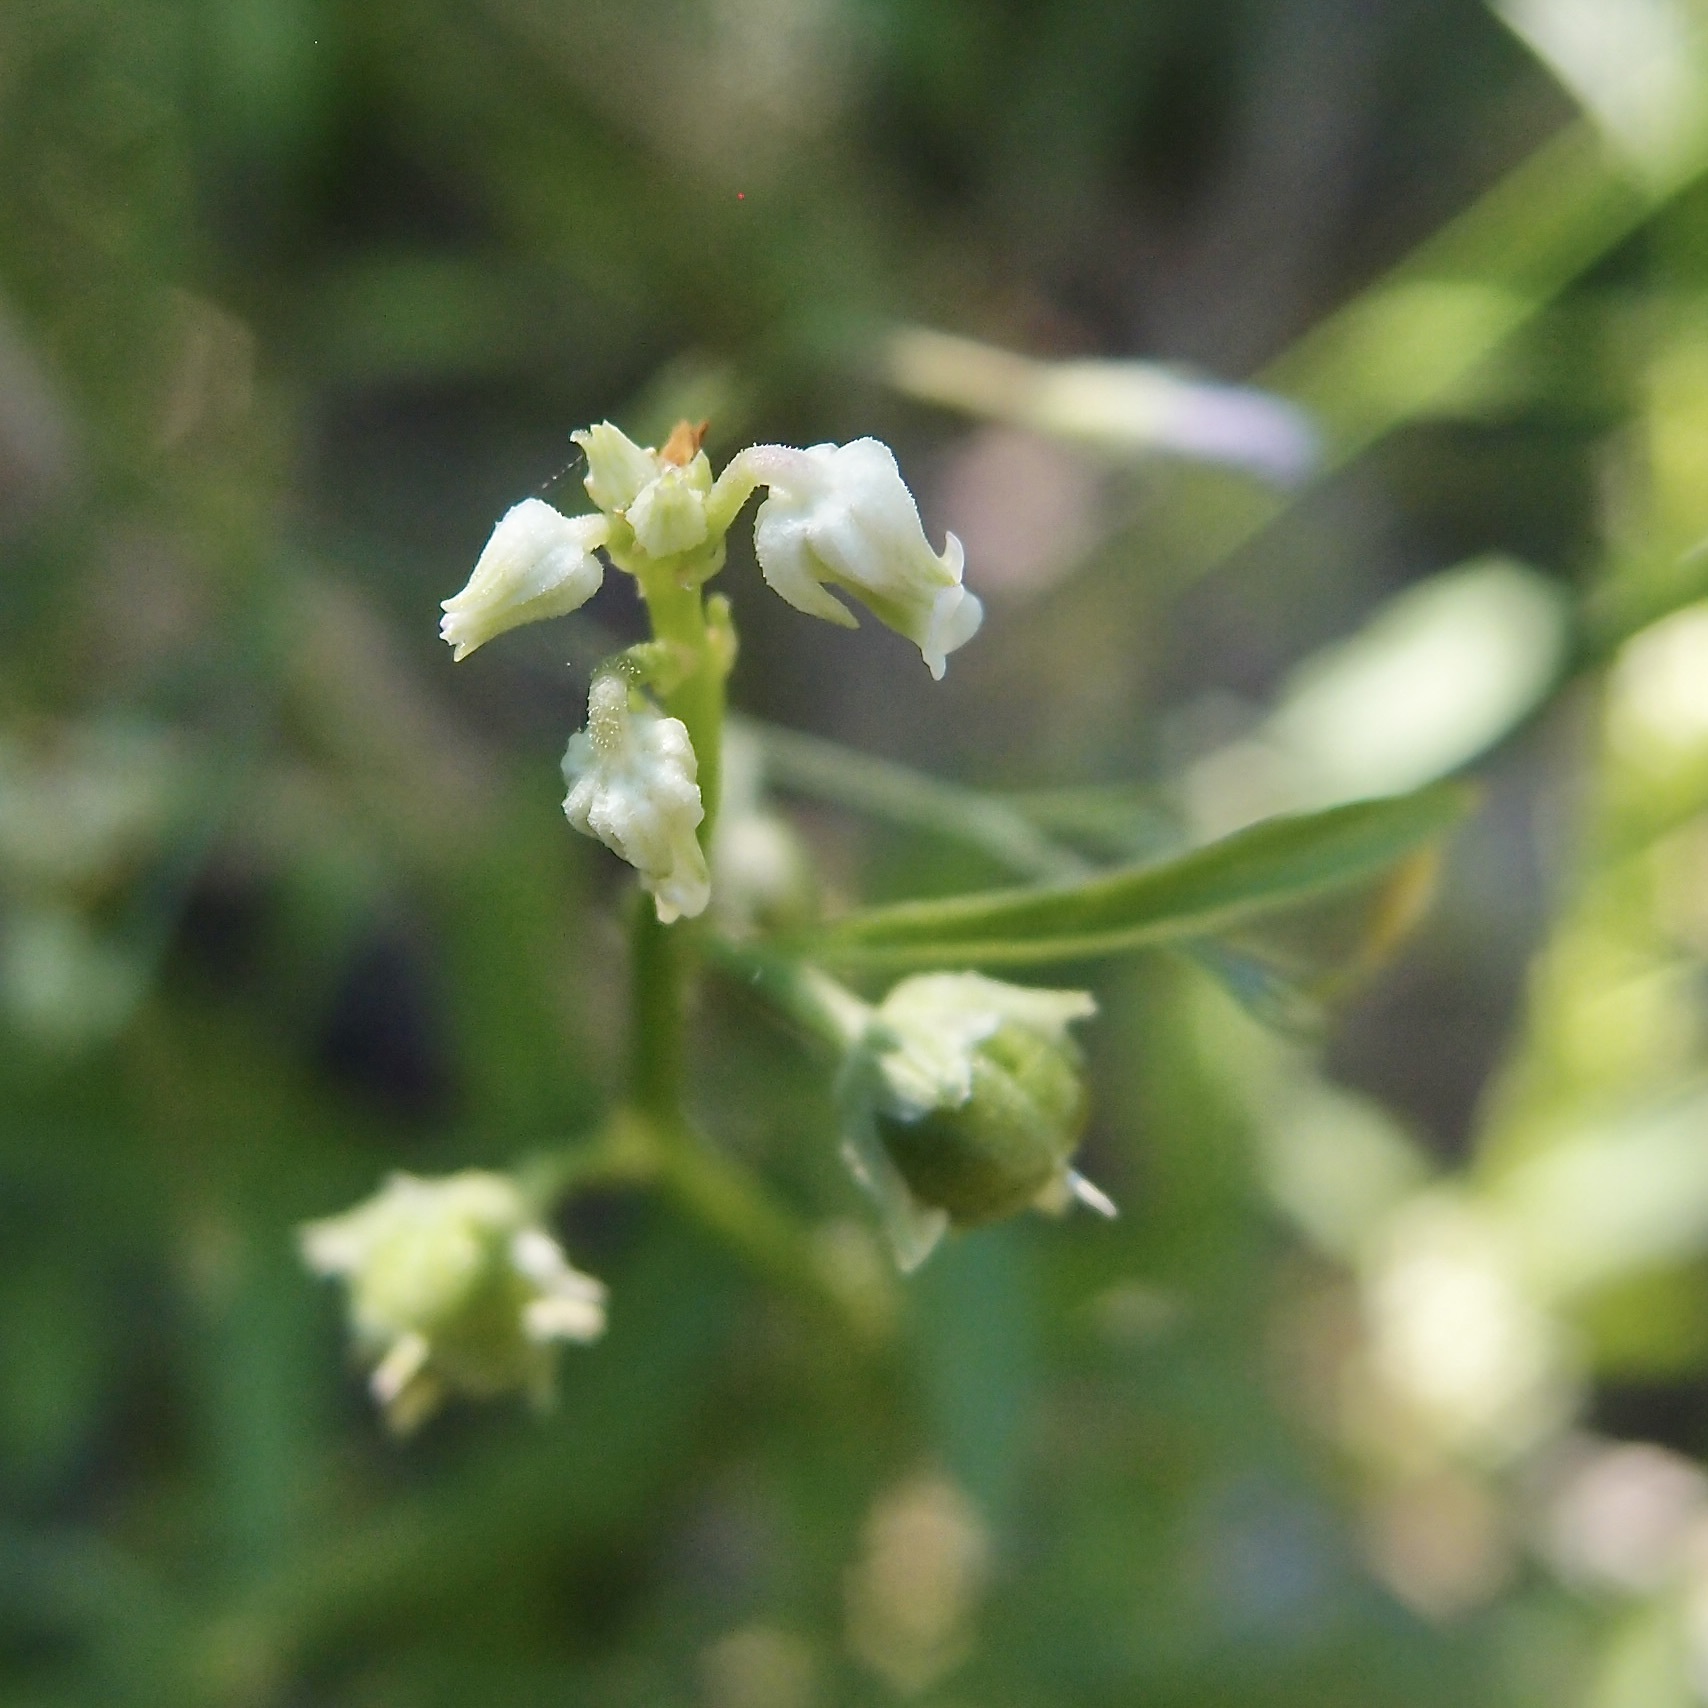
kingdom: Plantae
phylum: Tracheophyta
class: Magnoliopsida
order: Malpighiales
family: Violaceae
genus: Hybanthus
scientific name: Hybanthus fruticulosus
